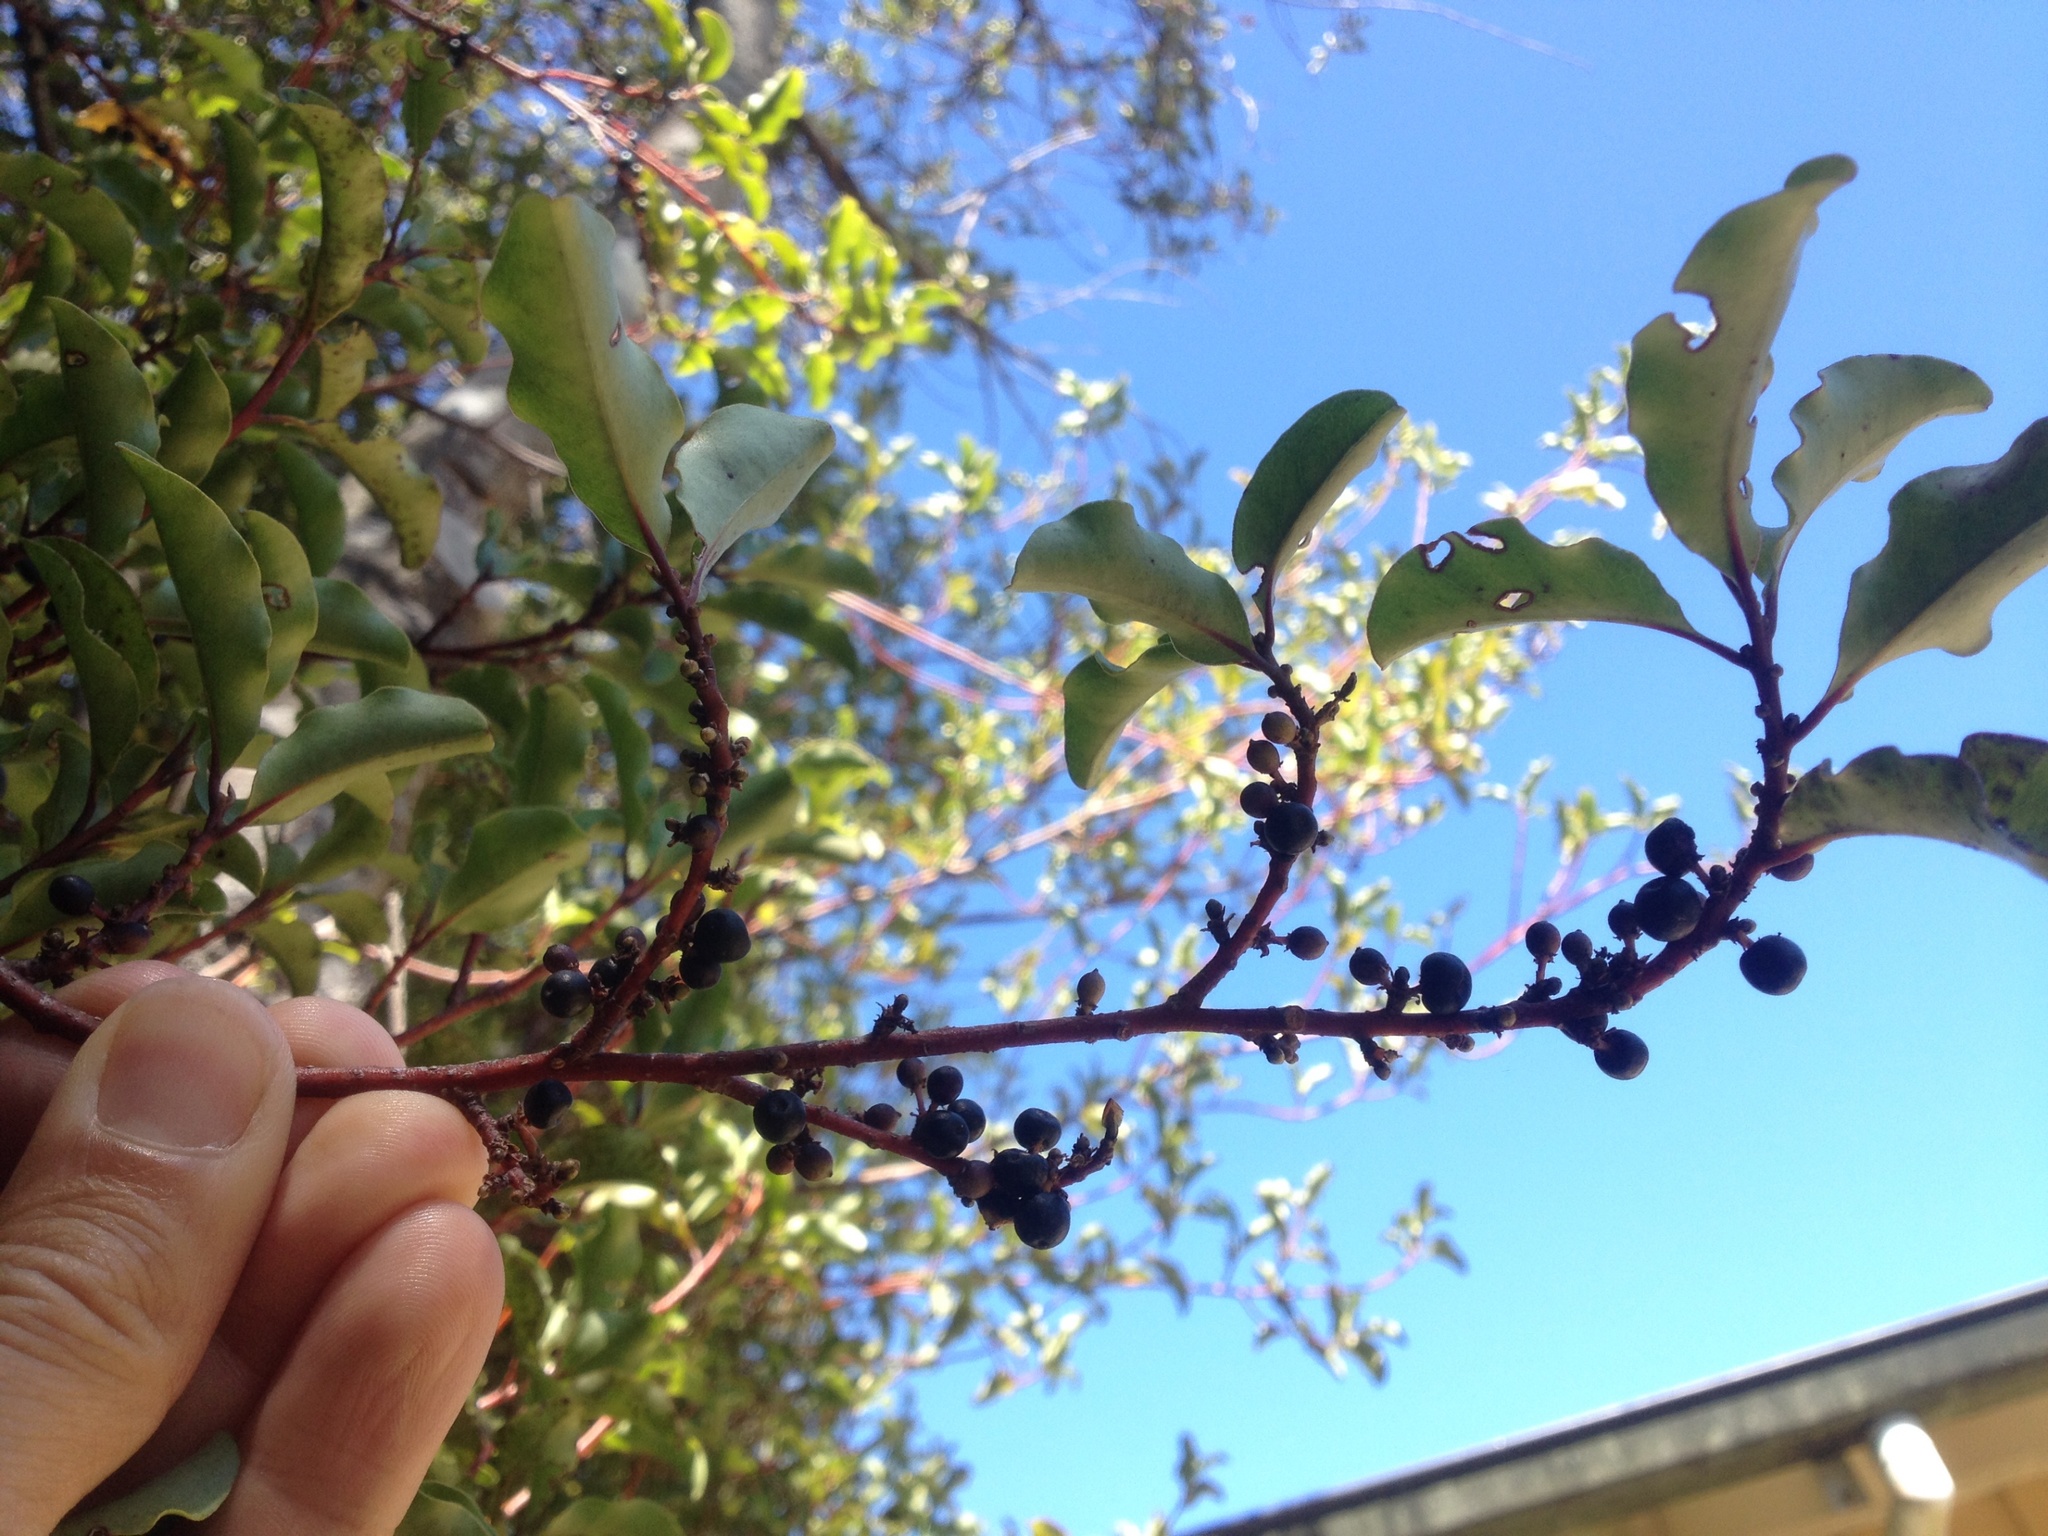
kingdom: Plantae
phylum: Tracheophyta
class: Magnoliopsida
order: Ericales
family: Primulaceae
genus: Myrsine
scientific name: Myrsine australis
